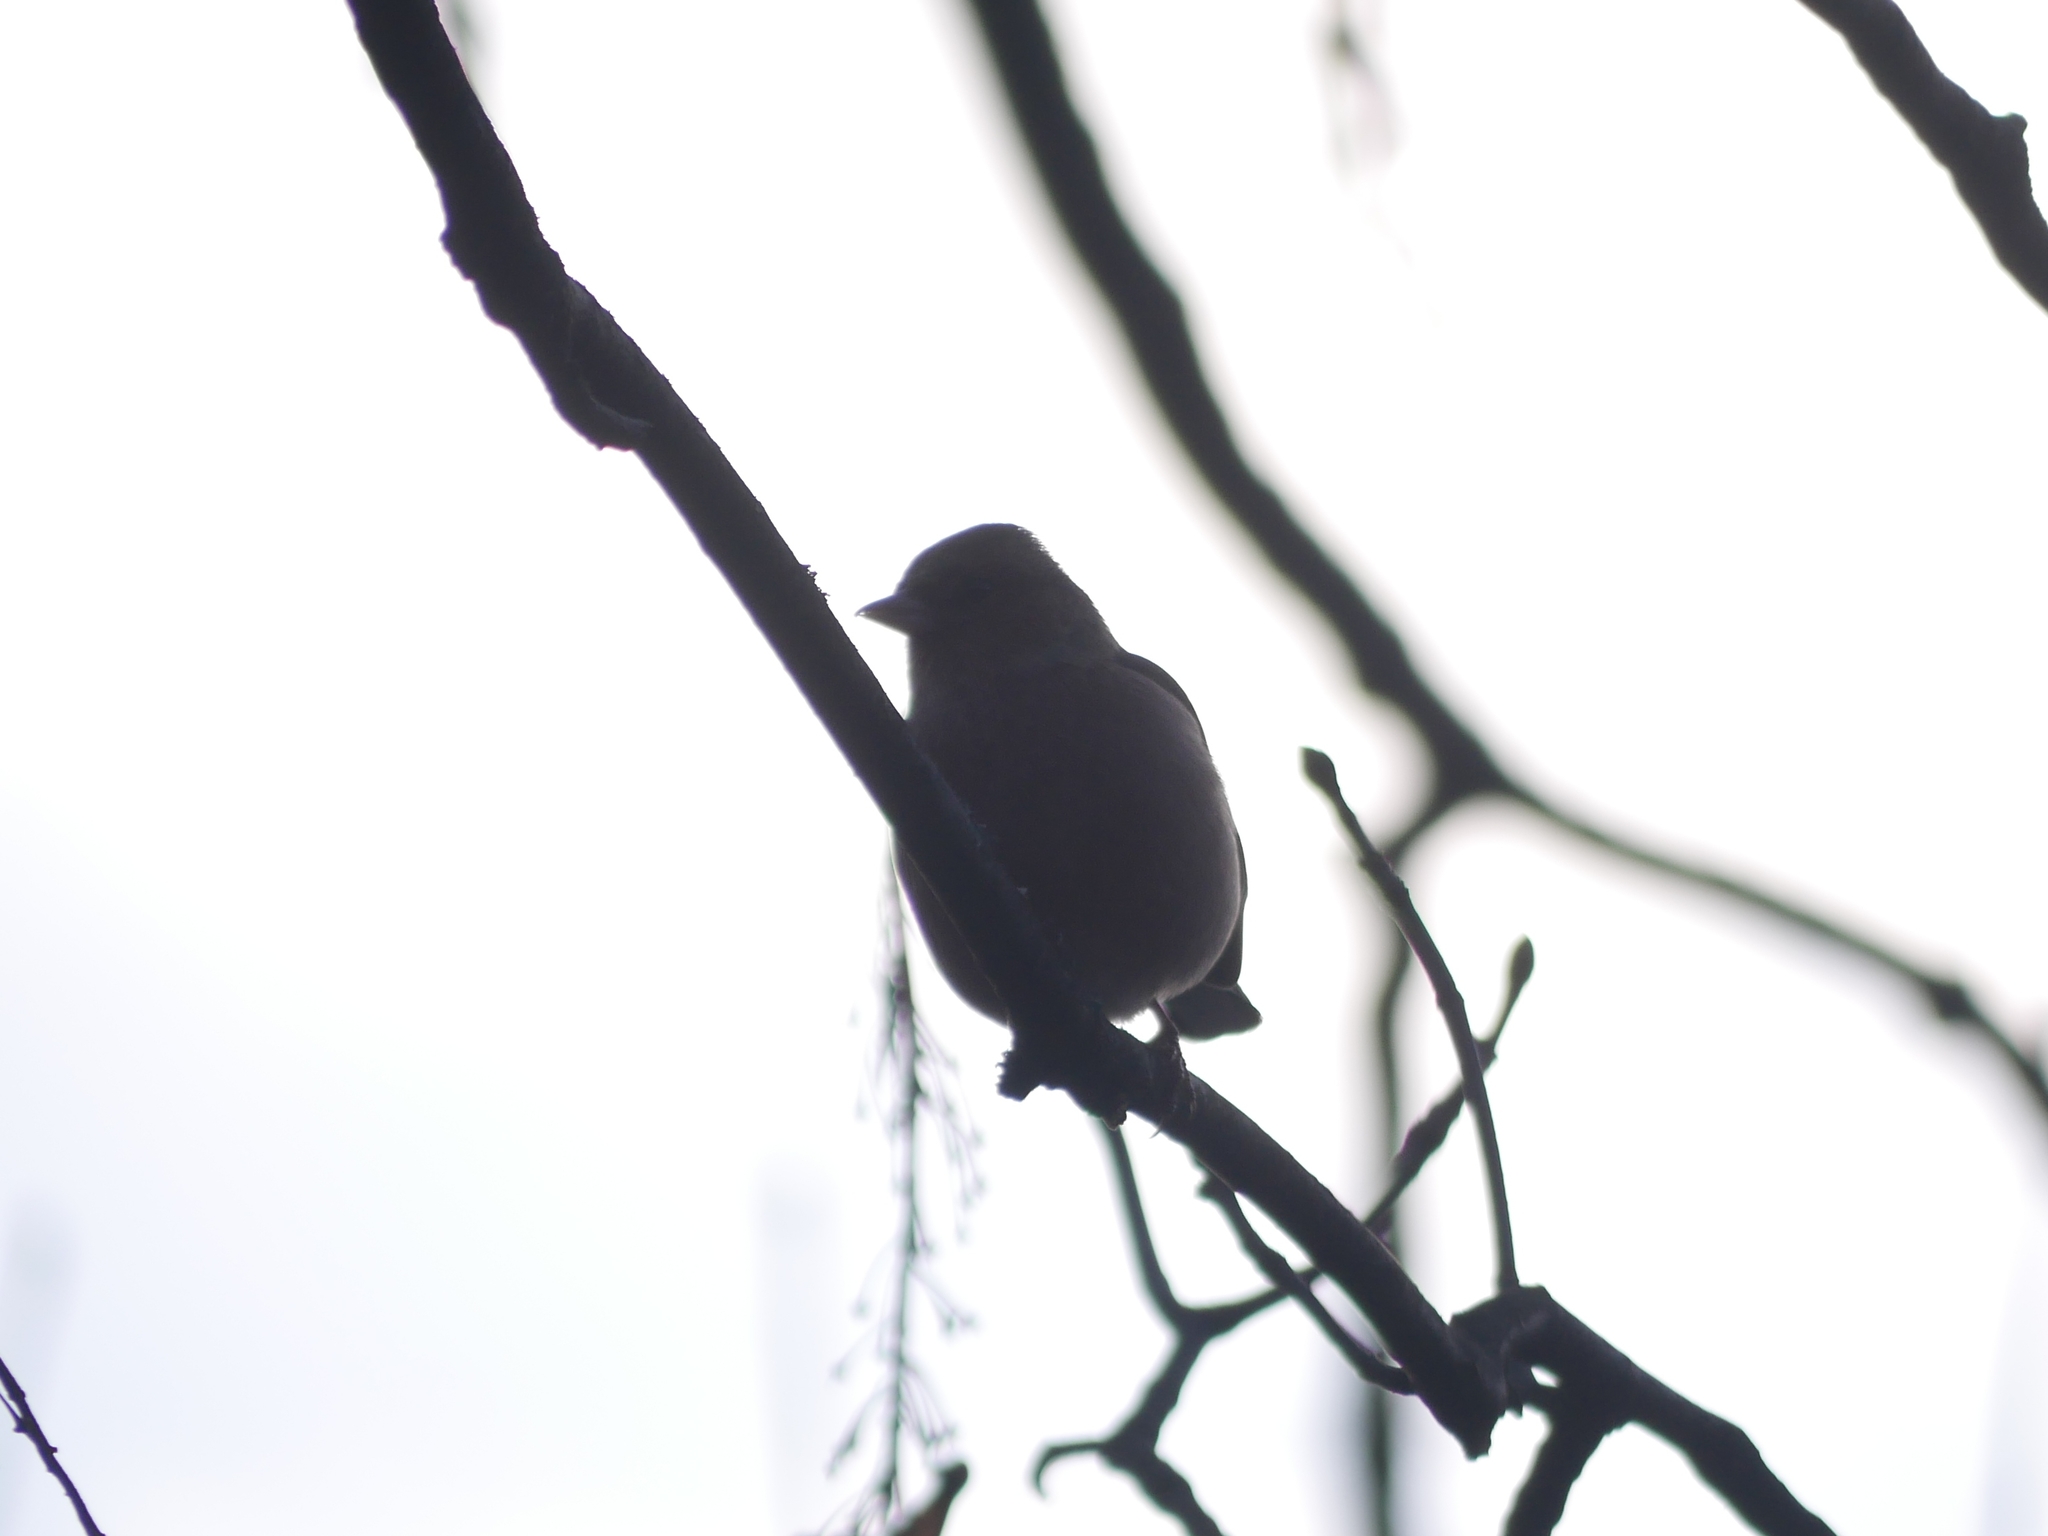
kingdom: Animalia
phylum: Chordata
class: Aves
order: Passeriformes
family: Fringillidae
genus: Fringilla
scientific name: Fringilla coelebs
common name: Common chaffinch
